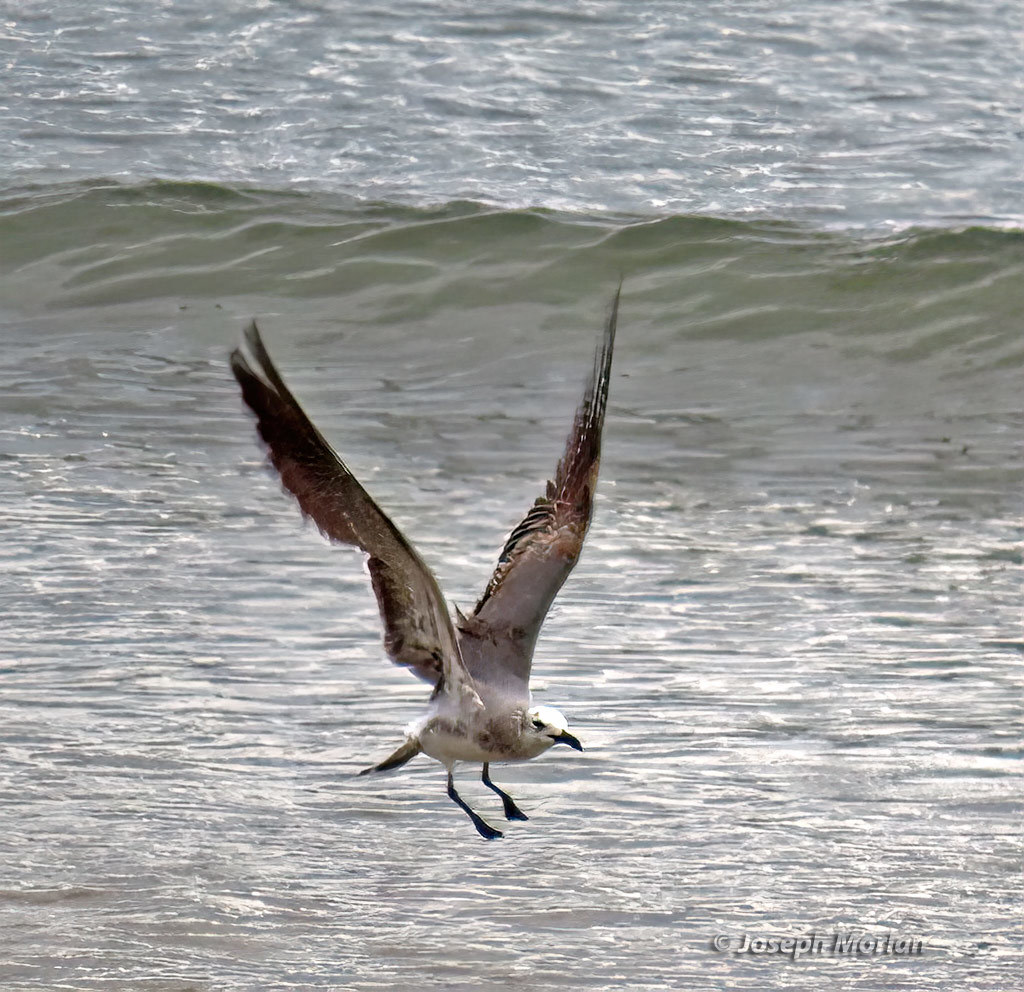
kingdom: Animalia
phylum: Chordata
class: Aves
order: Charadriiformes
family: Laridae
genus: Leucophaeus
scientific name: Leucophaeus atricilla
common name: Laughing gull
